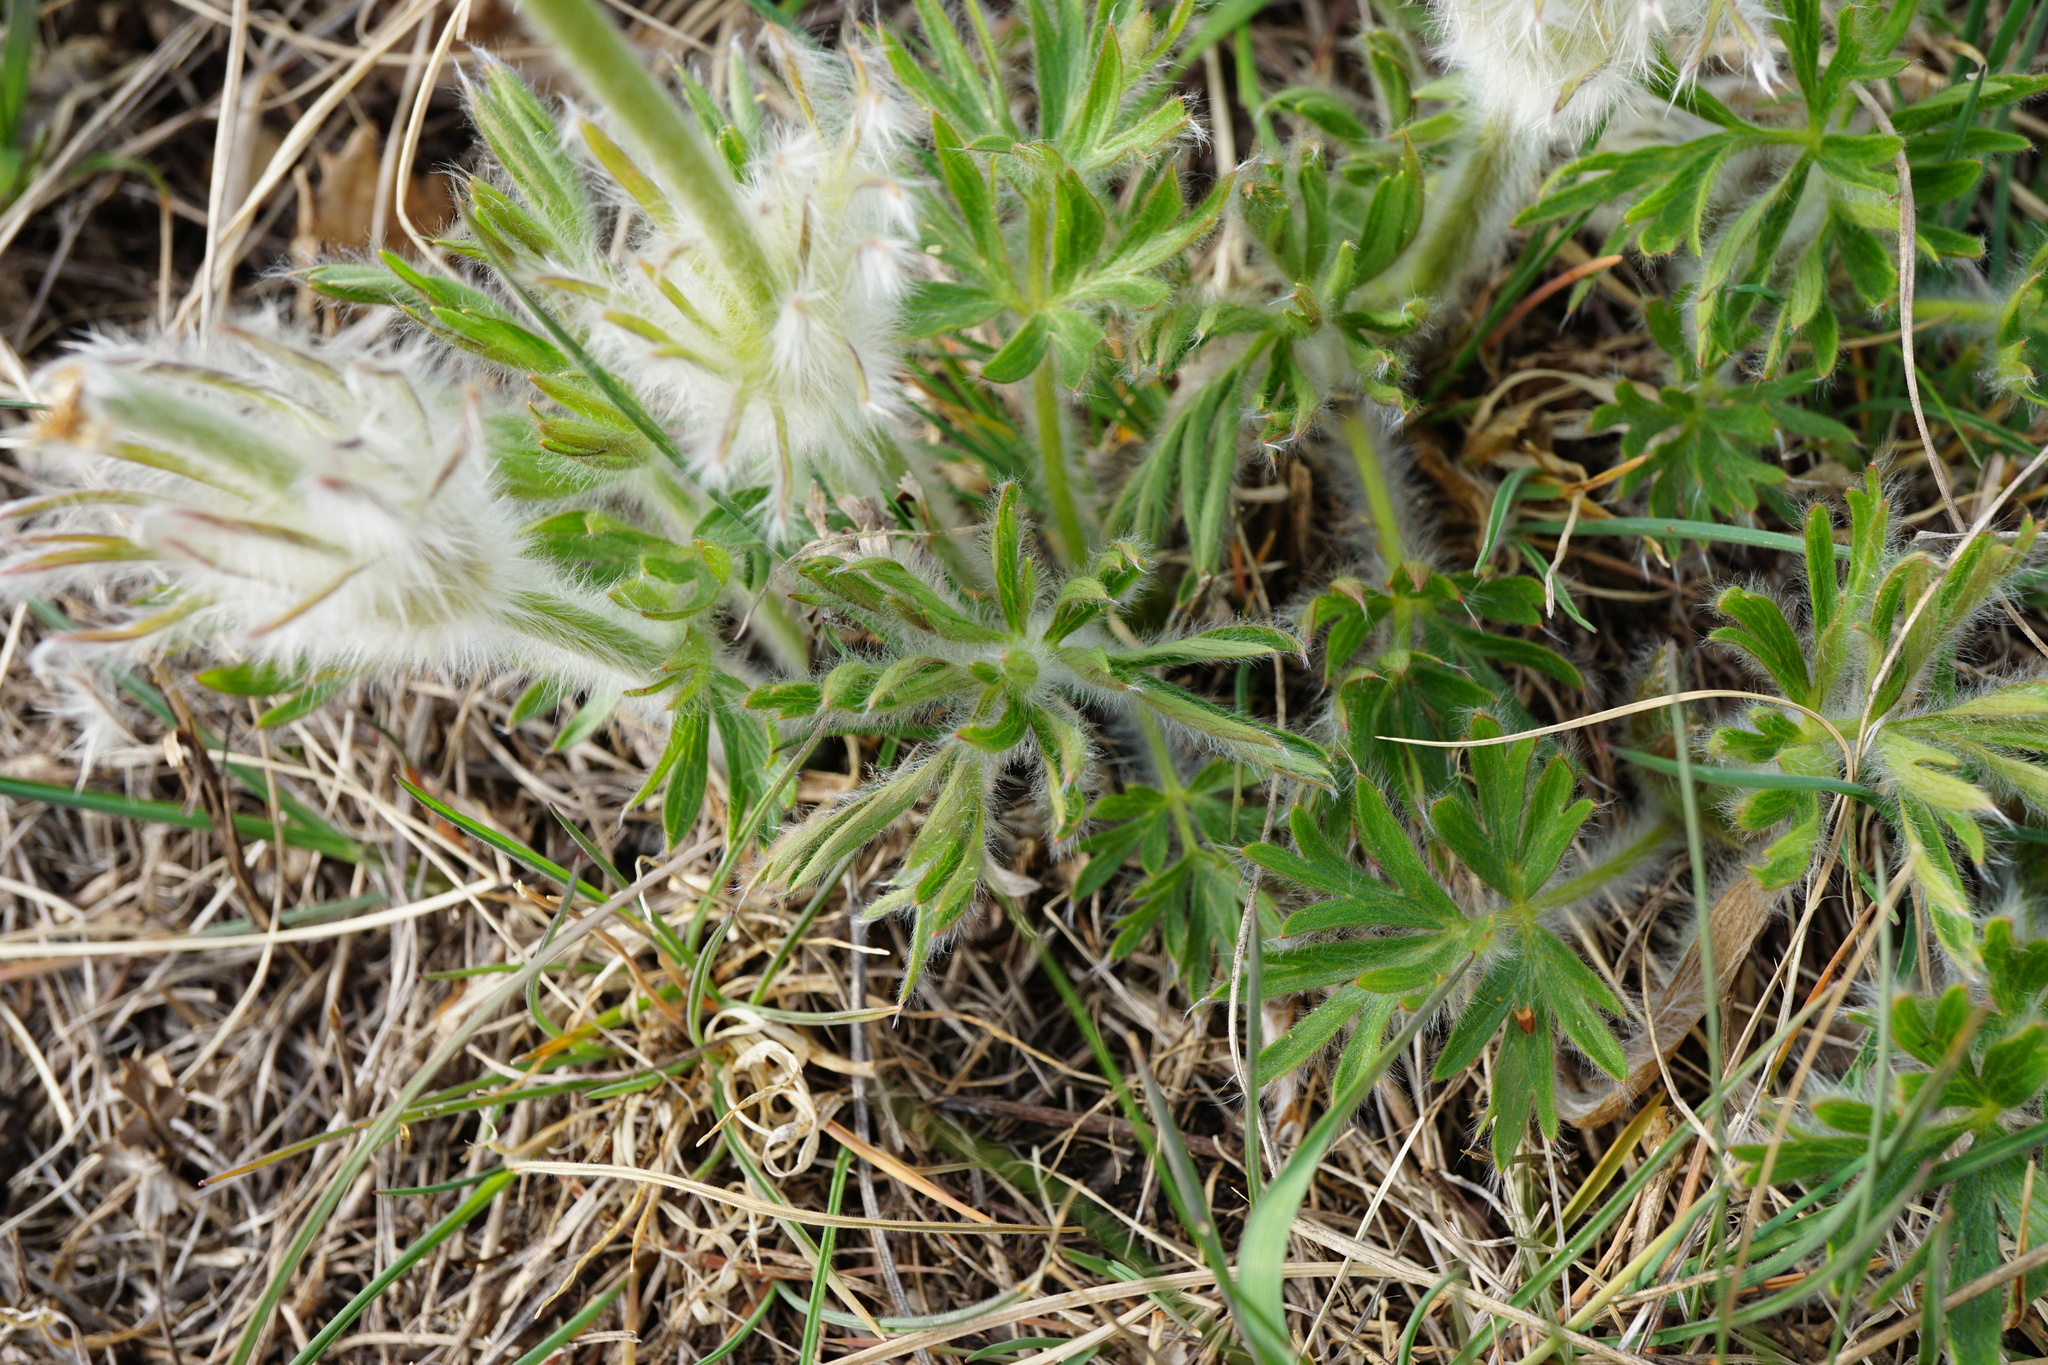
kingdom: Plantae
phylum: Tracheophyta
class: Magnoliopsida
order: Ranunculales
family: Ranunculaceae
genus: Pulsatilla
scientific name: Pulsatilla grandis
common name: Greater pasque flower
